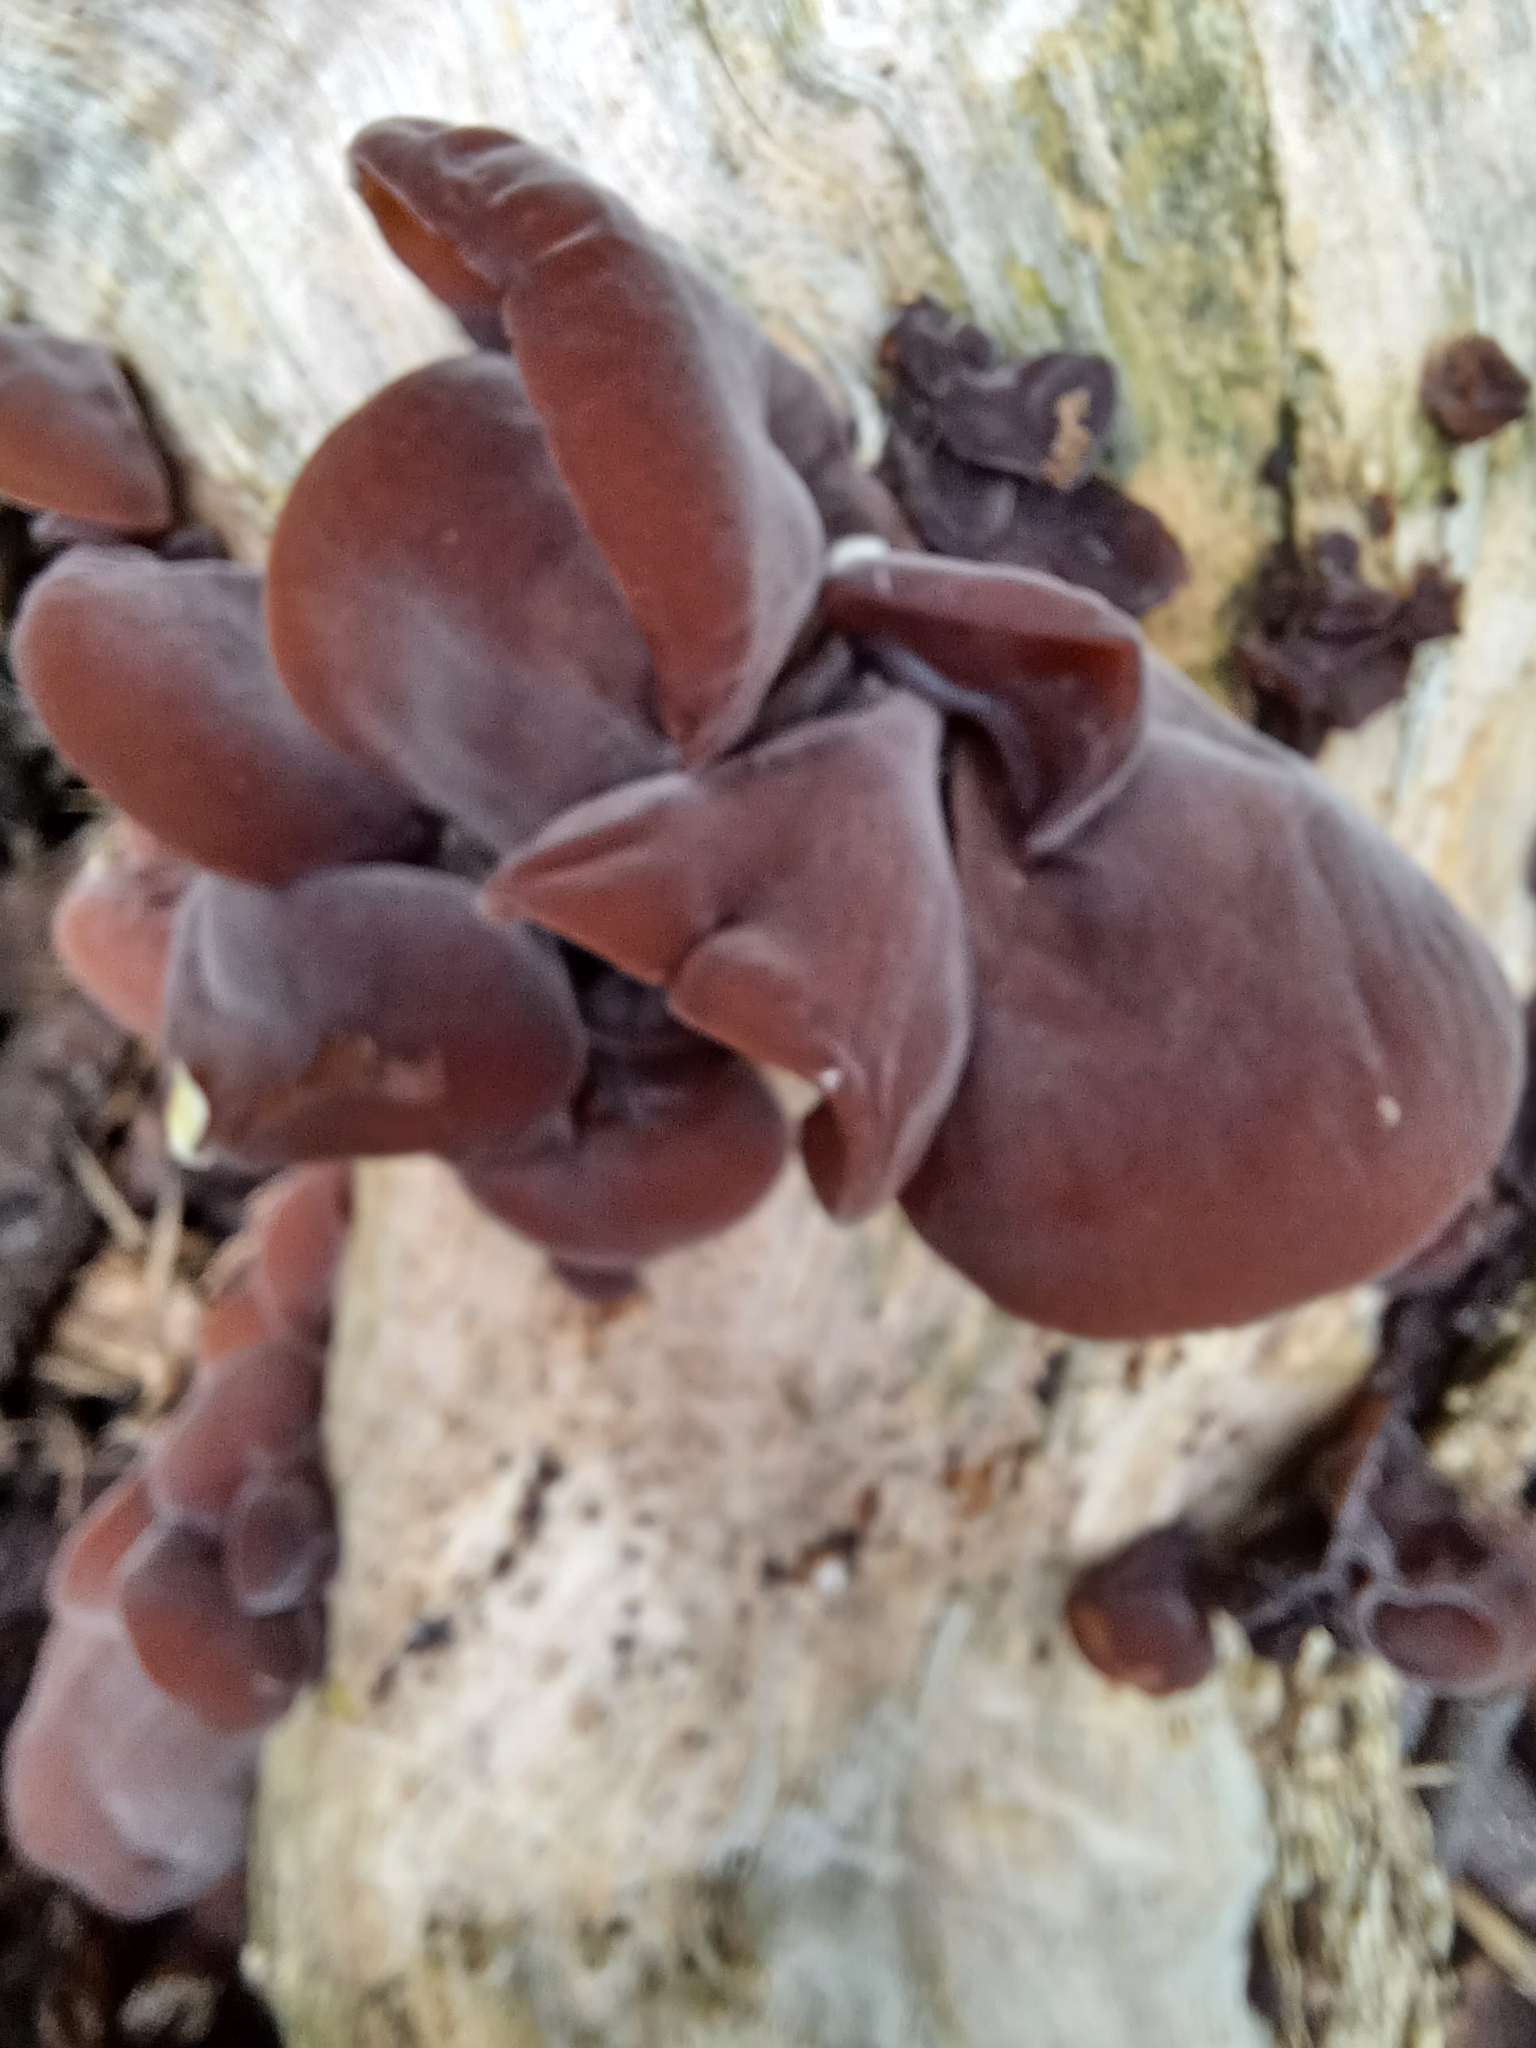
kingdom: Fungi
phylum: Basidiomycota
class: Agaricomycetes
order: Auriculariales
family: Auriculariaceae
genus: Auricularia
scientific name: Auricularia auricula-judae
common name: Jelly ear
